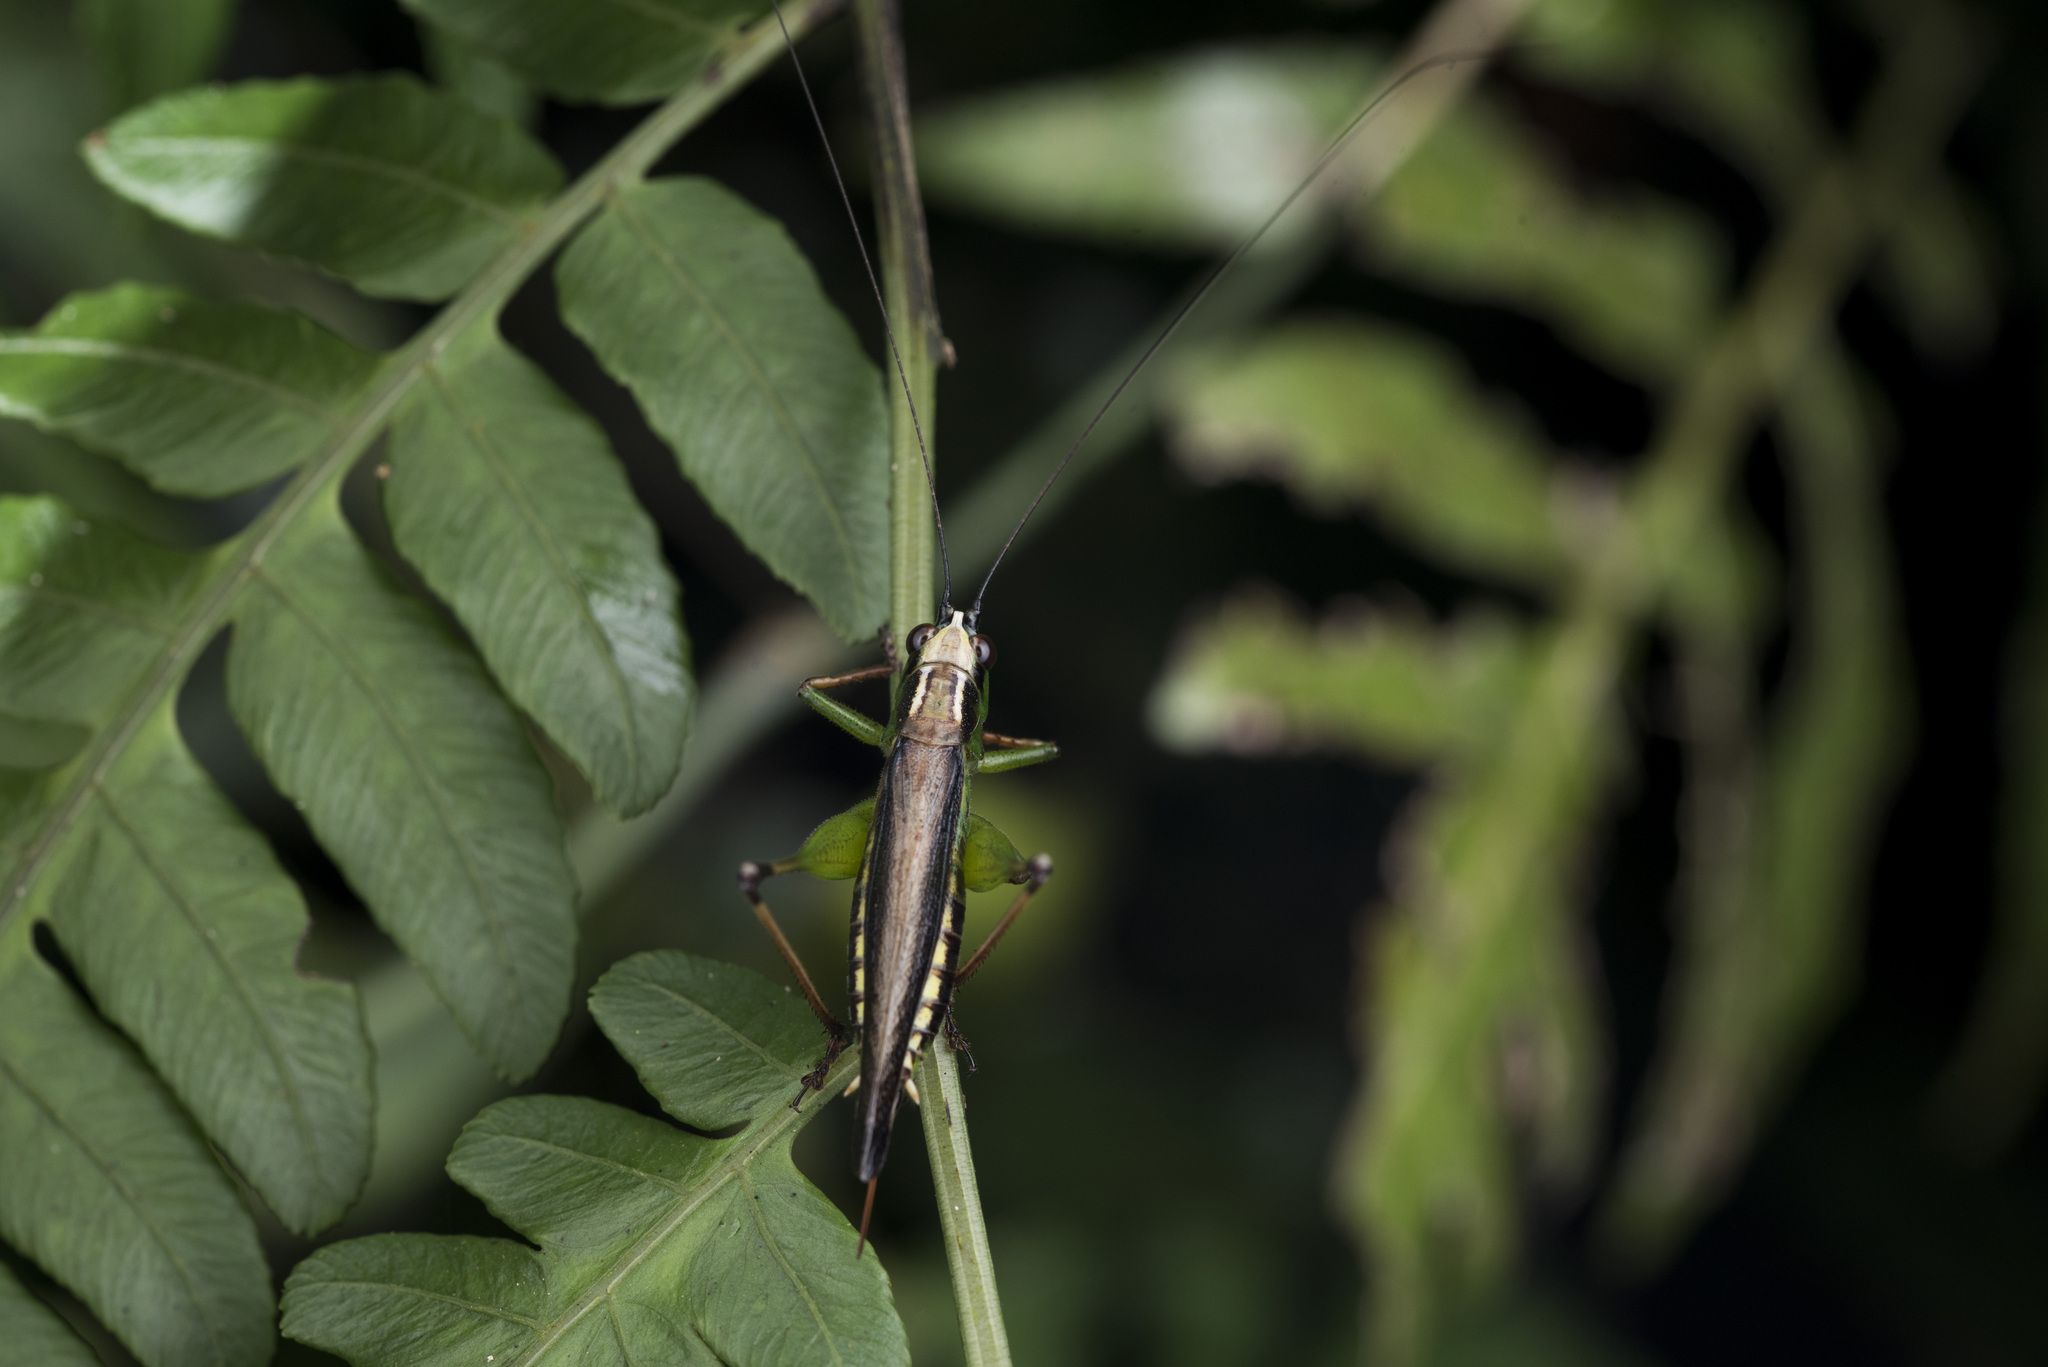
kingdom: Animalia
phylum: Arthropoda
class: Insecta
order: Orthoptera
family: Tettigoniidae
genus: Conocephalus
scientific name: Conocephalus melaenus
